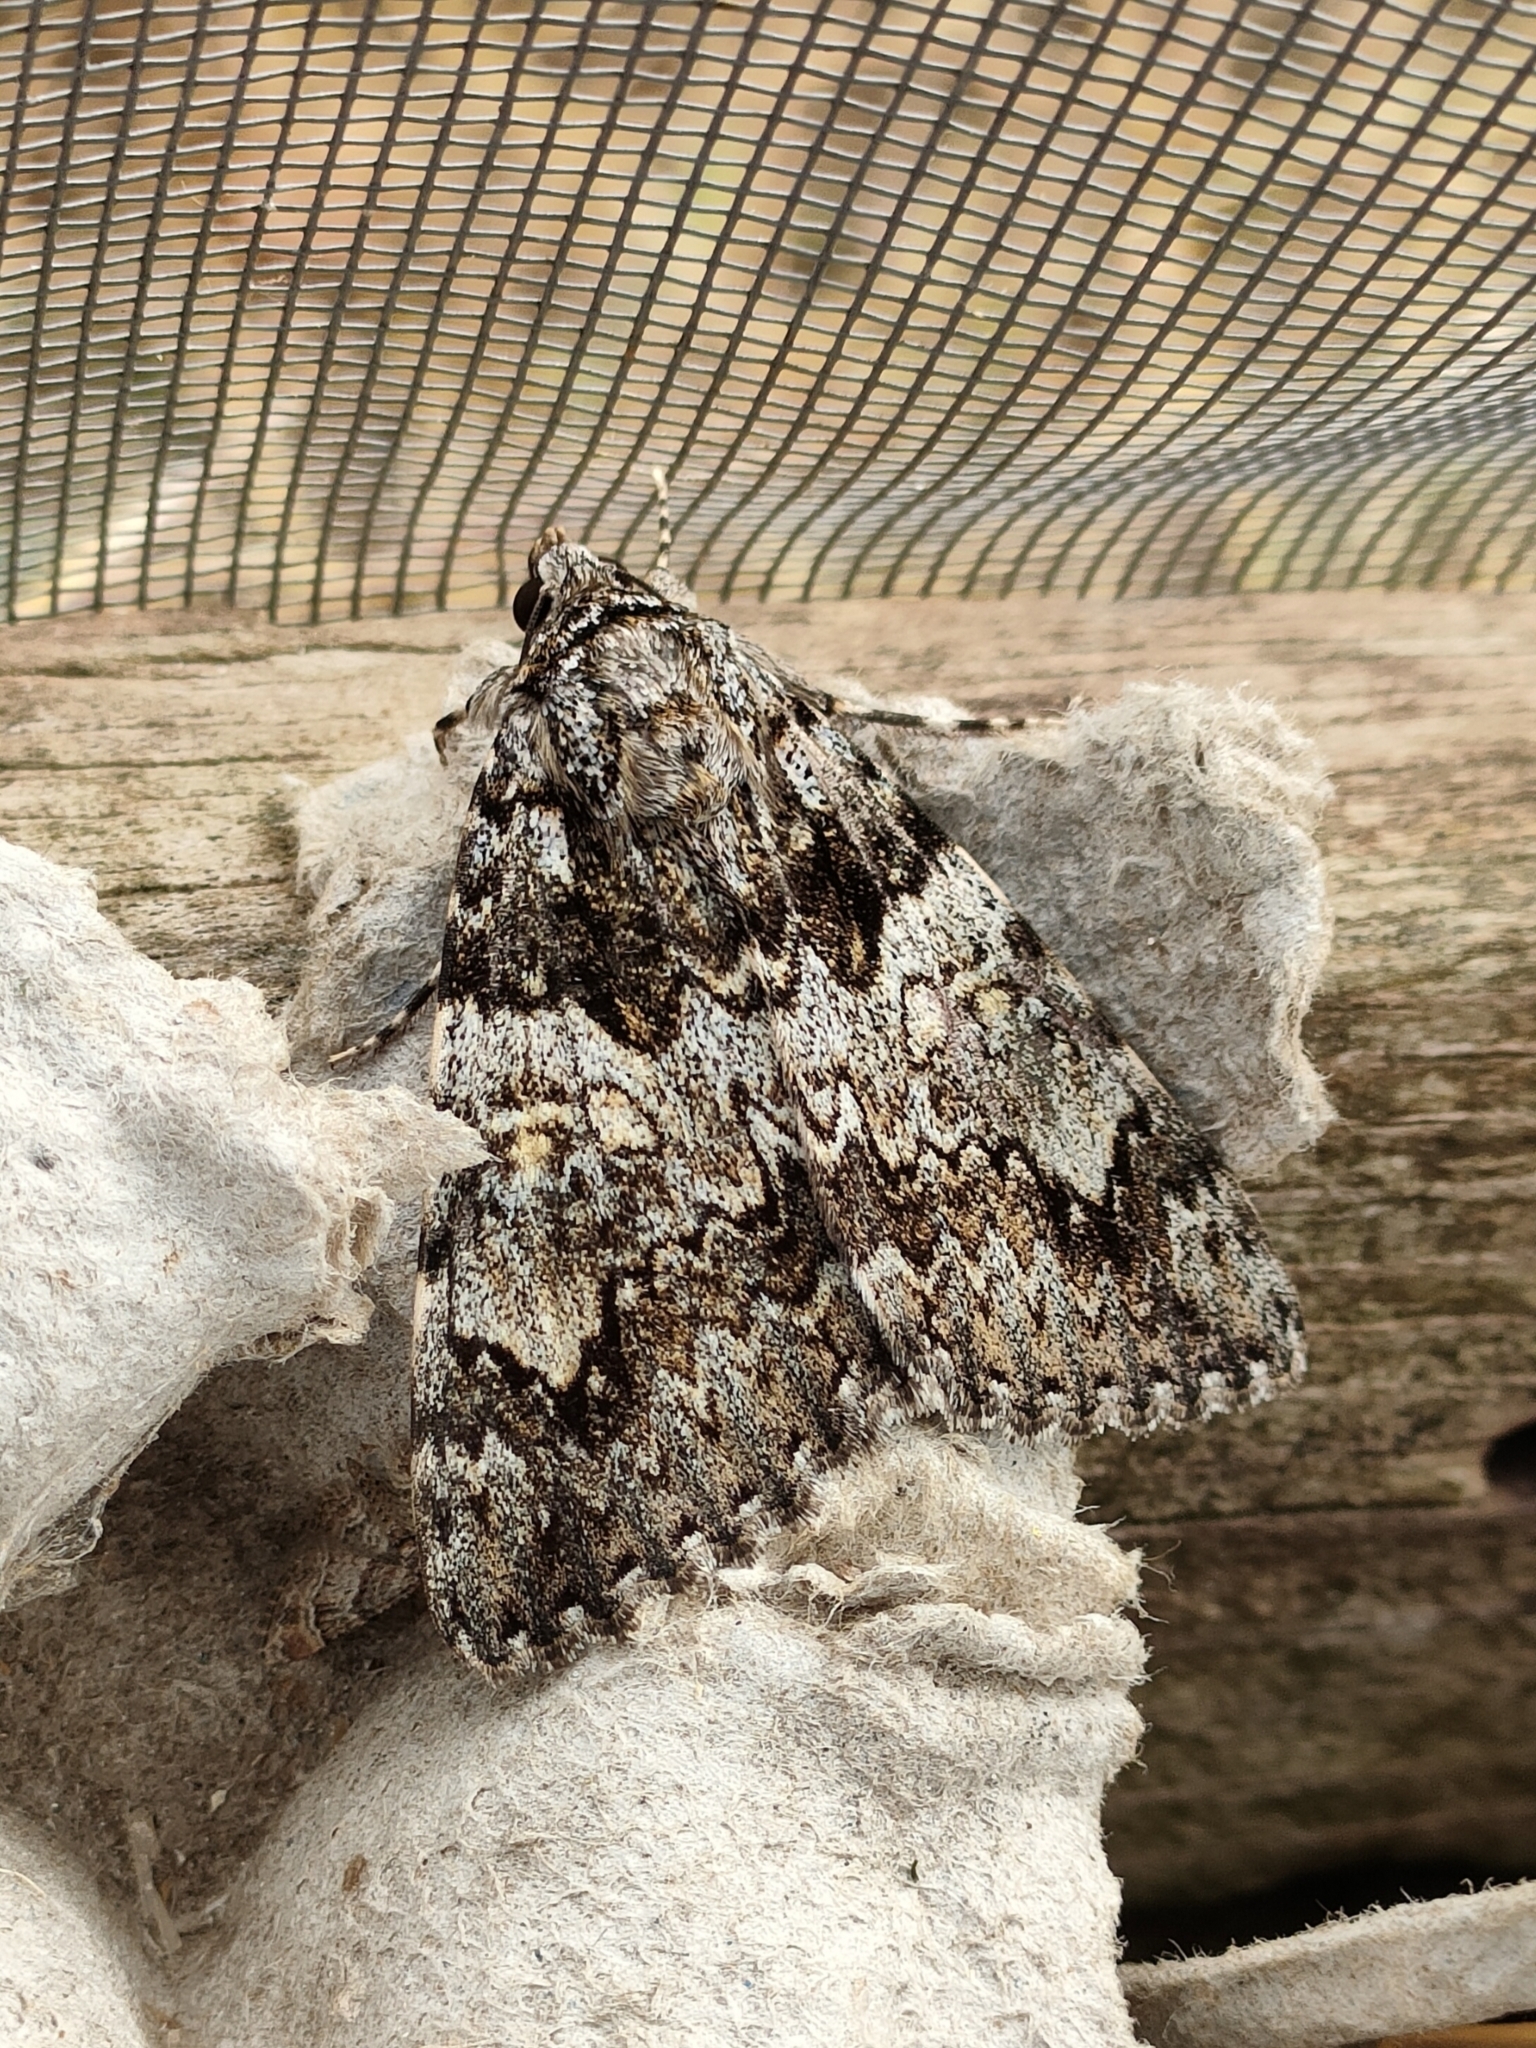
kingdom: Animalia
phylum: Arthropoda
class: Insecta
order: Lepidoptera
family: Erebidae
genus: Catocala
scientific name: Catocala promissa
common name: Light crimson underwing
